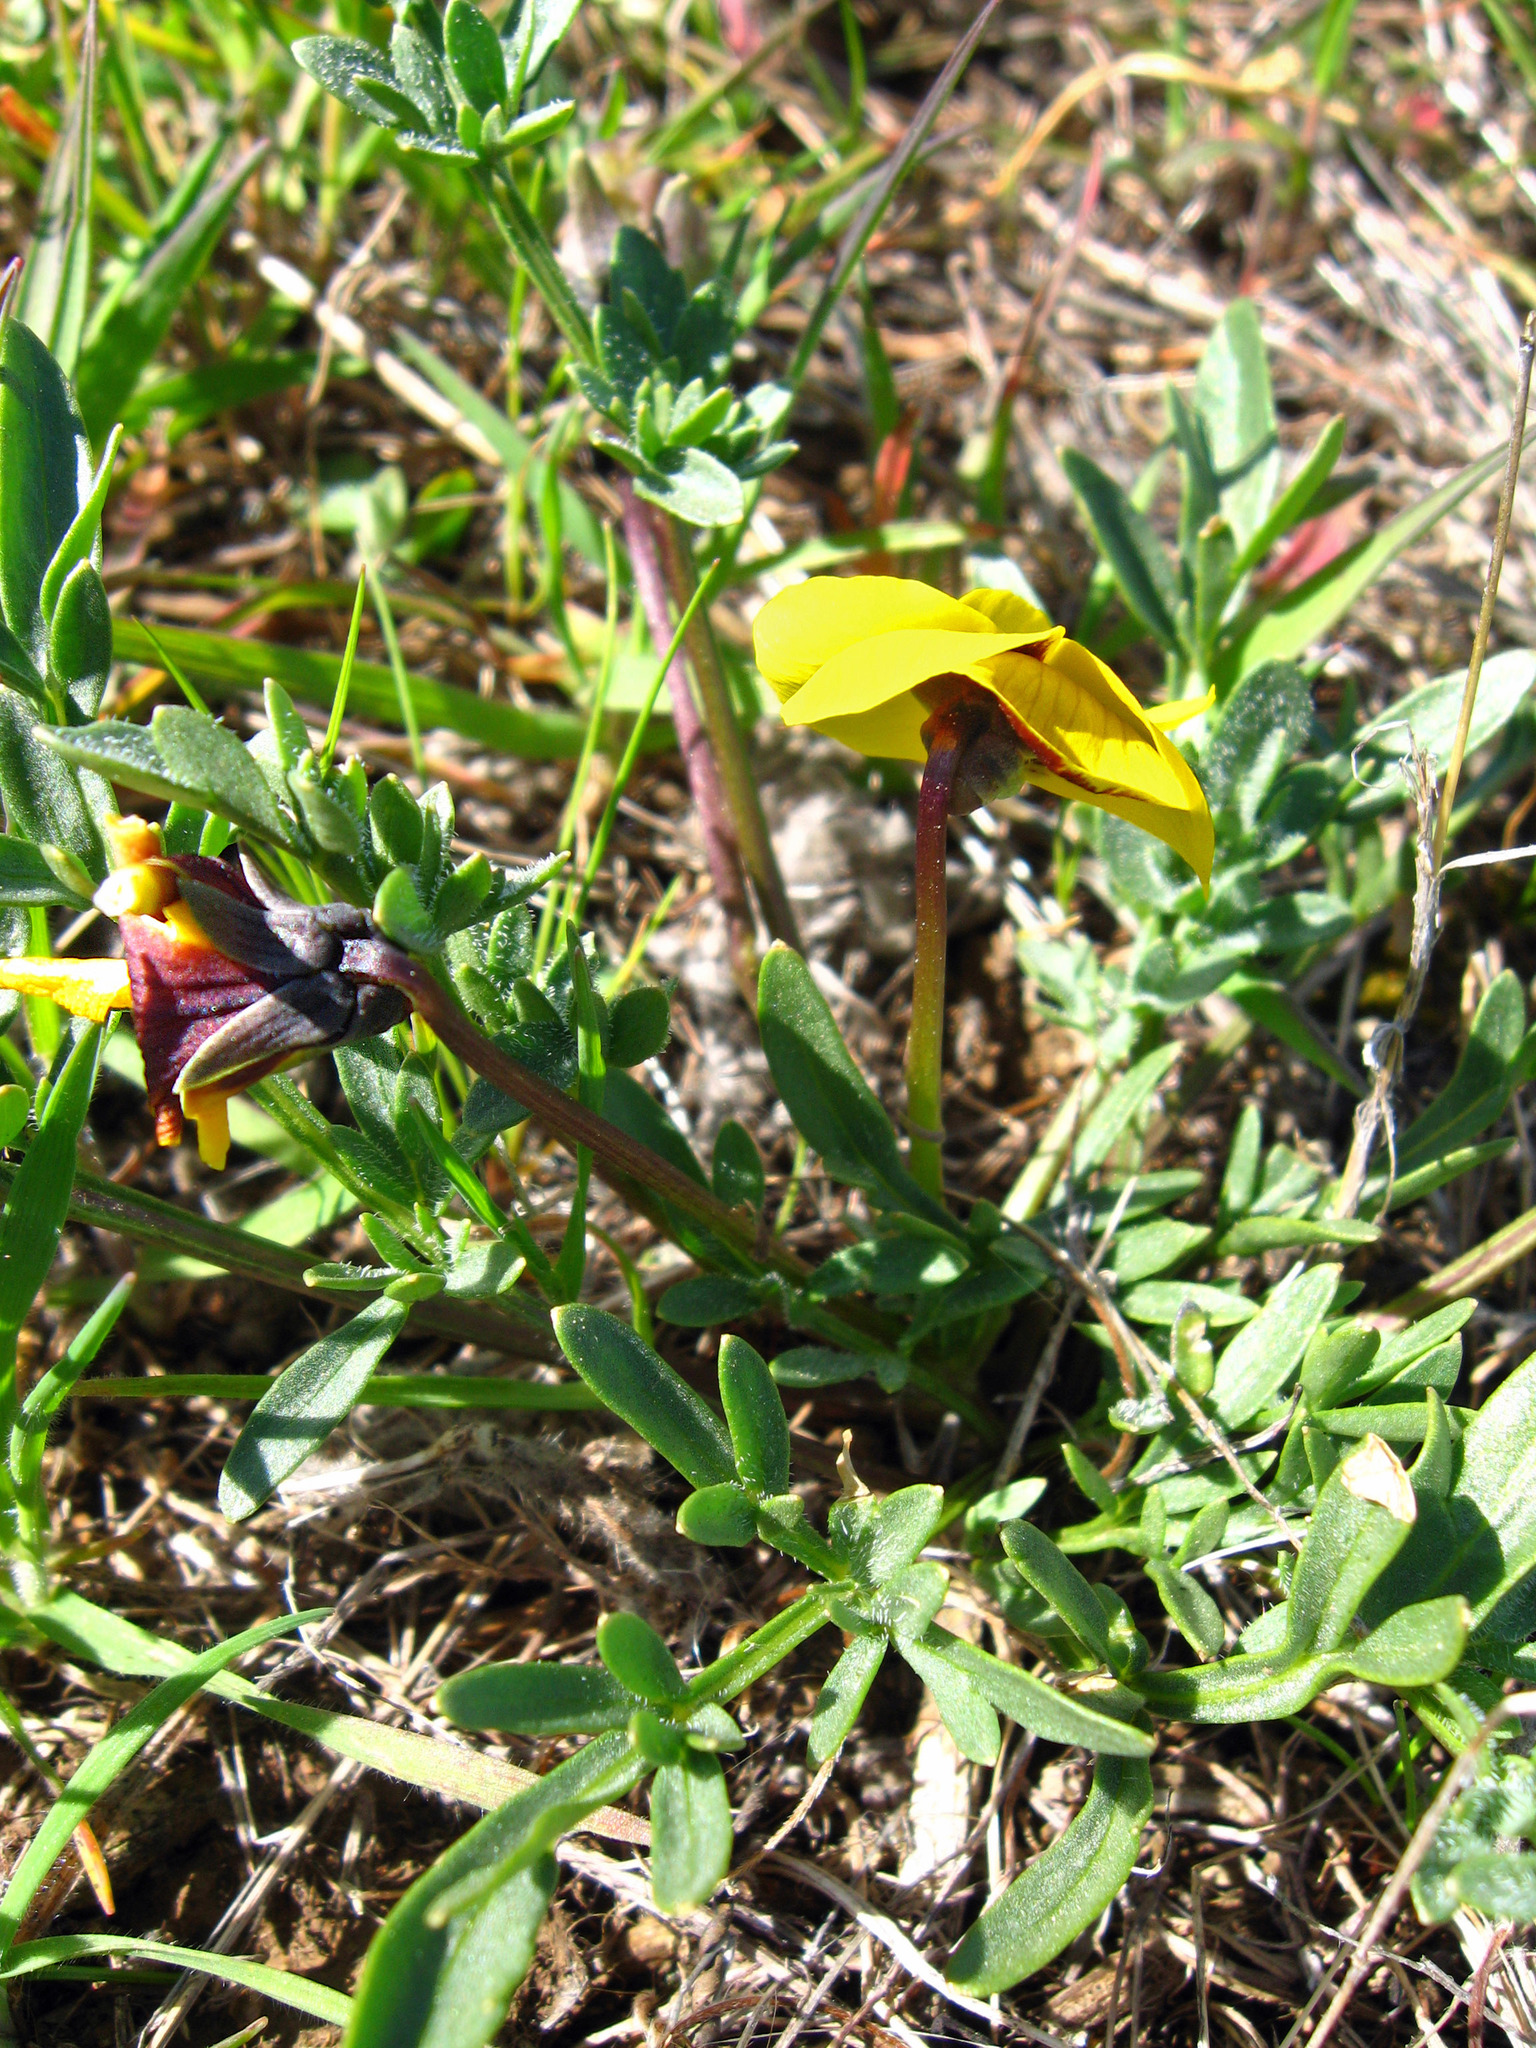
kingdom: Plantae
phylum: Tracheophyta
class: Magnoliopsida
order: Malpighiales
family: Violaceae
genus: Viola
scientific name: Viola douglasii
